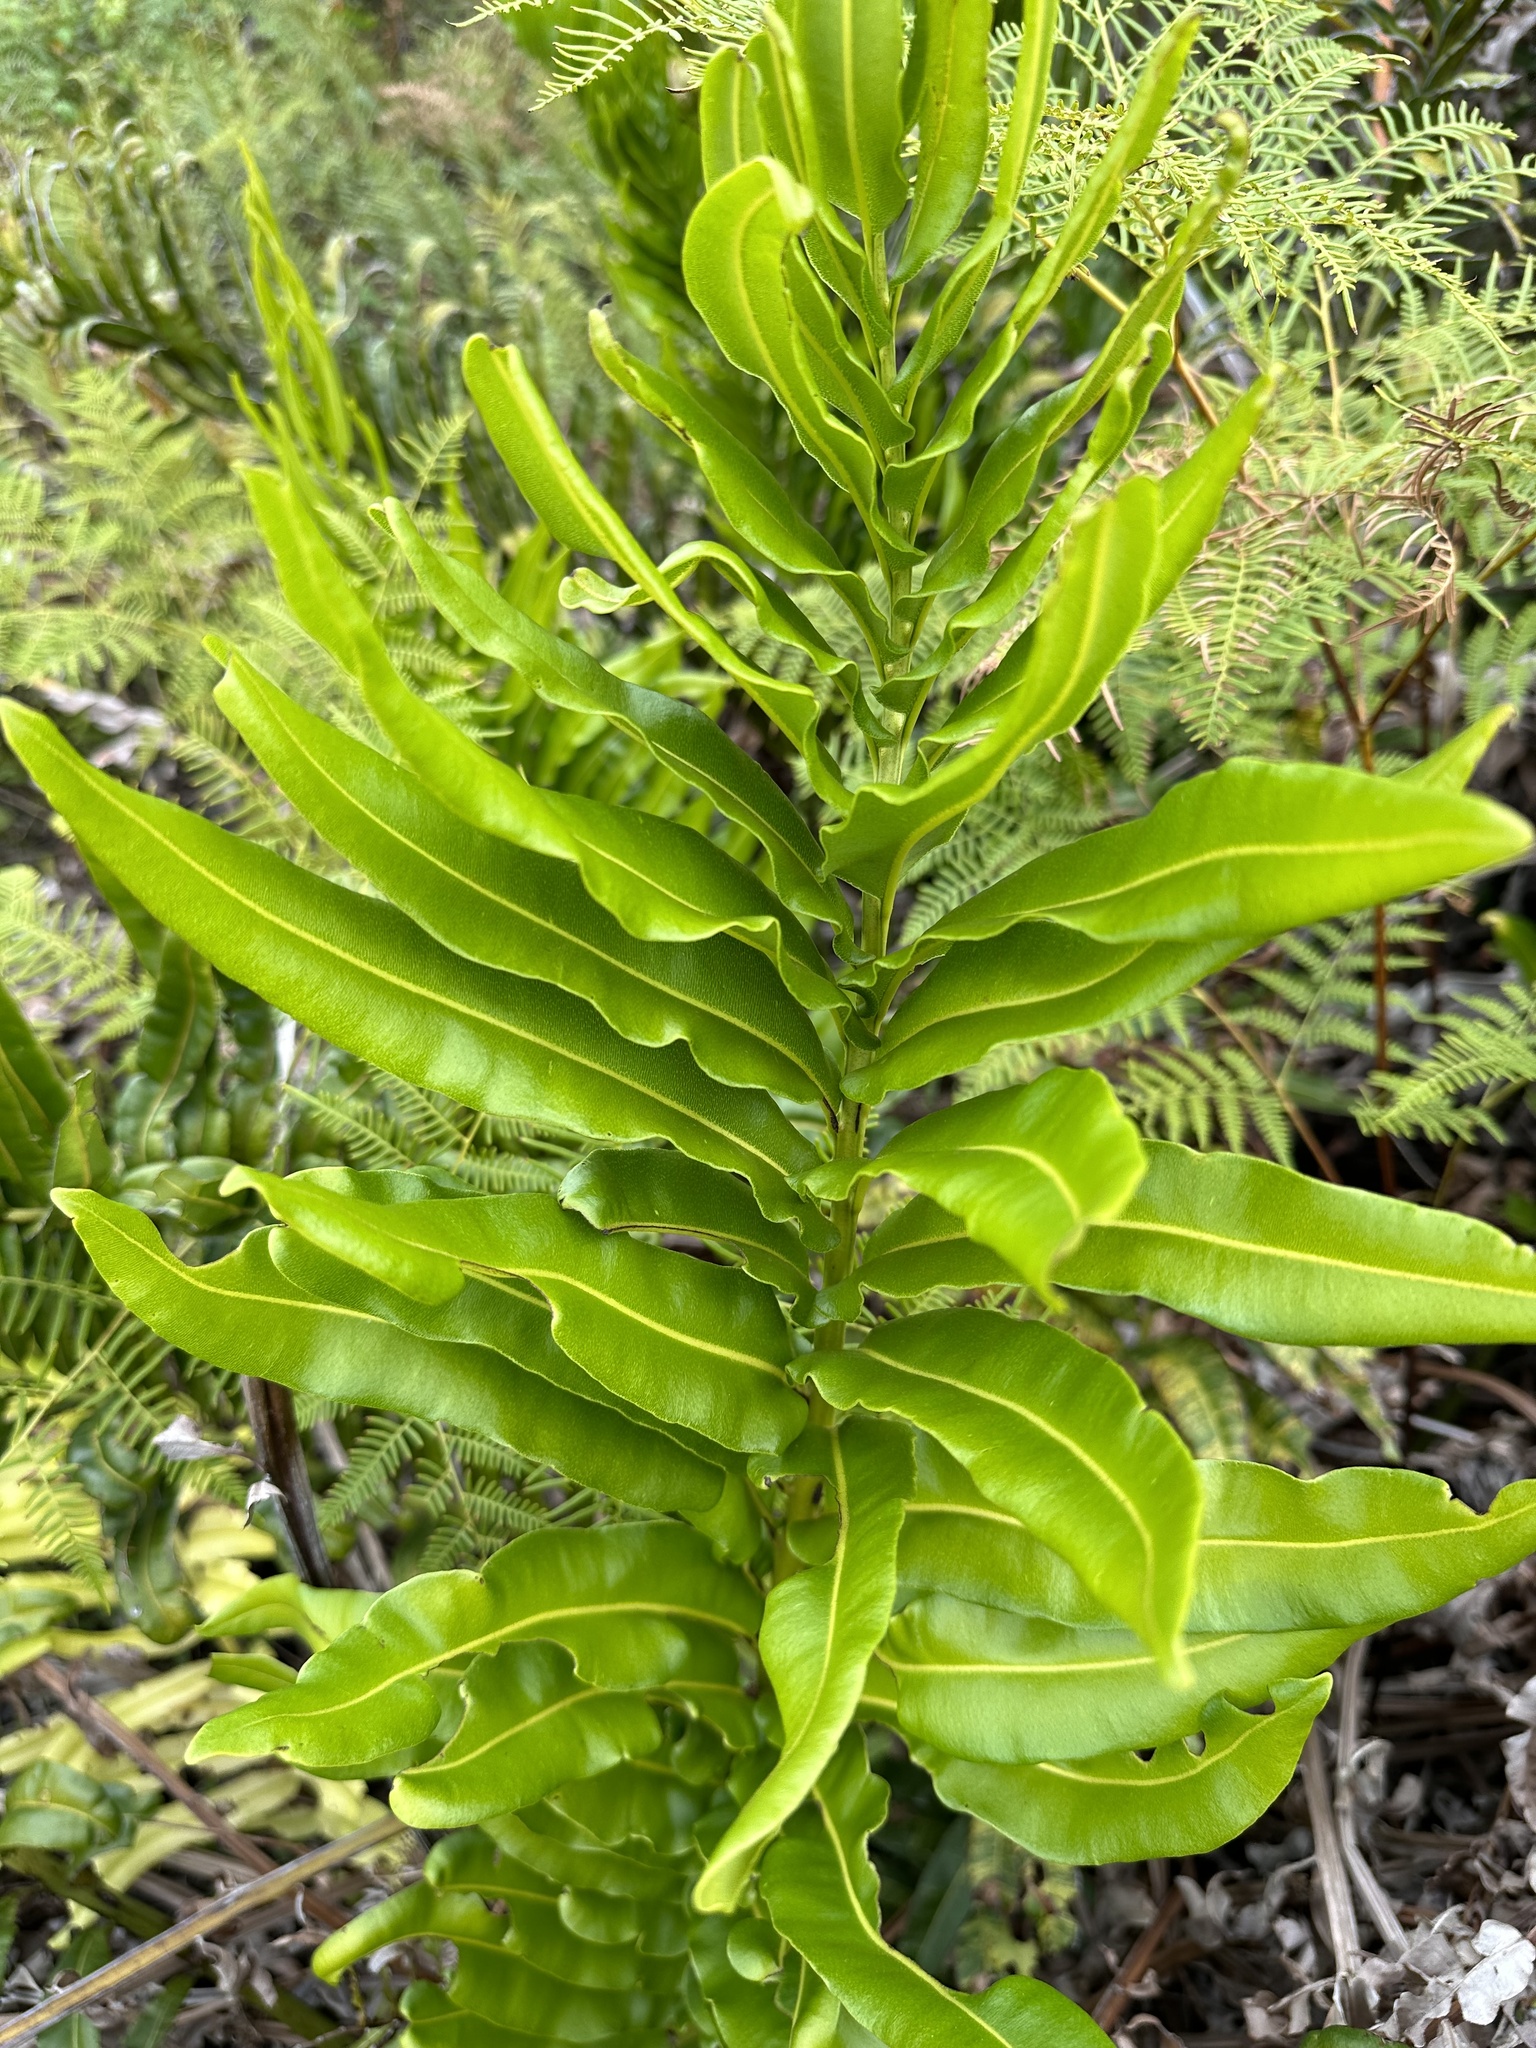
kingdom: Plantae
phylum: Tracheophyta
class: Polypodiopsida
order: Polypodiales
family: Pteridaceae
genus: Acrostichum
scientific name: Acrostichum danaeifolium
